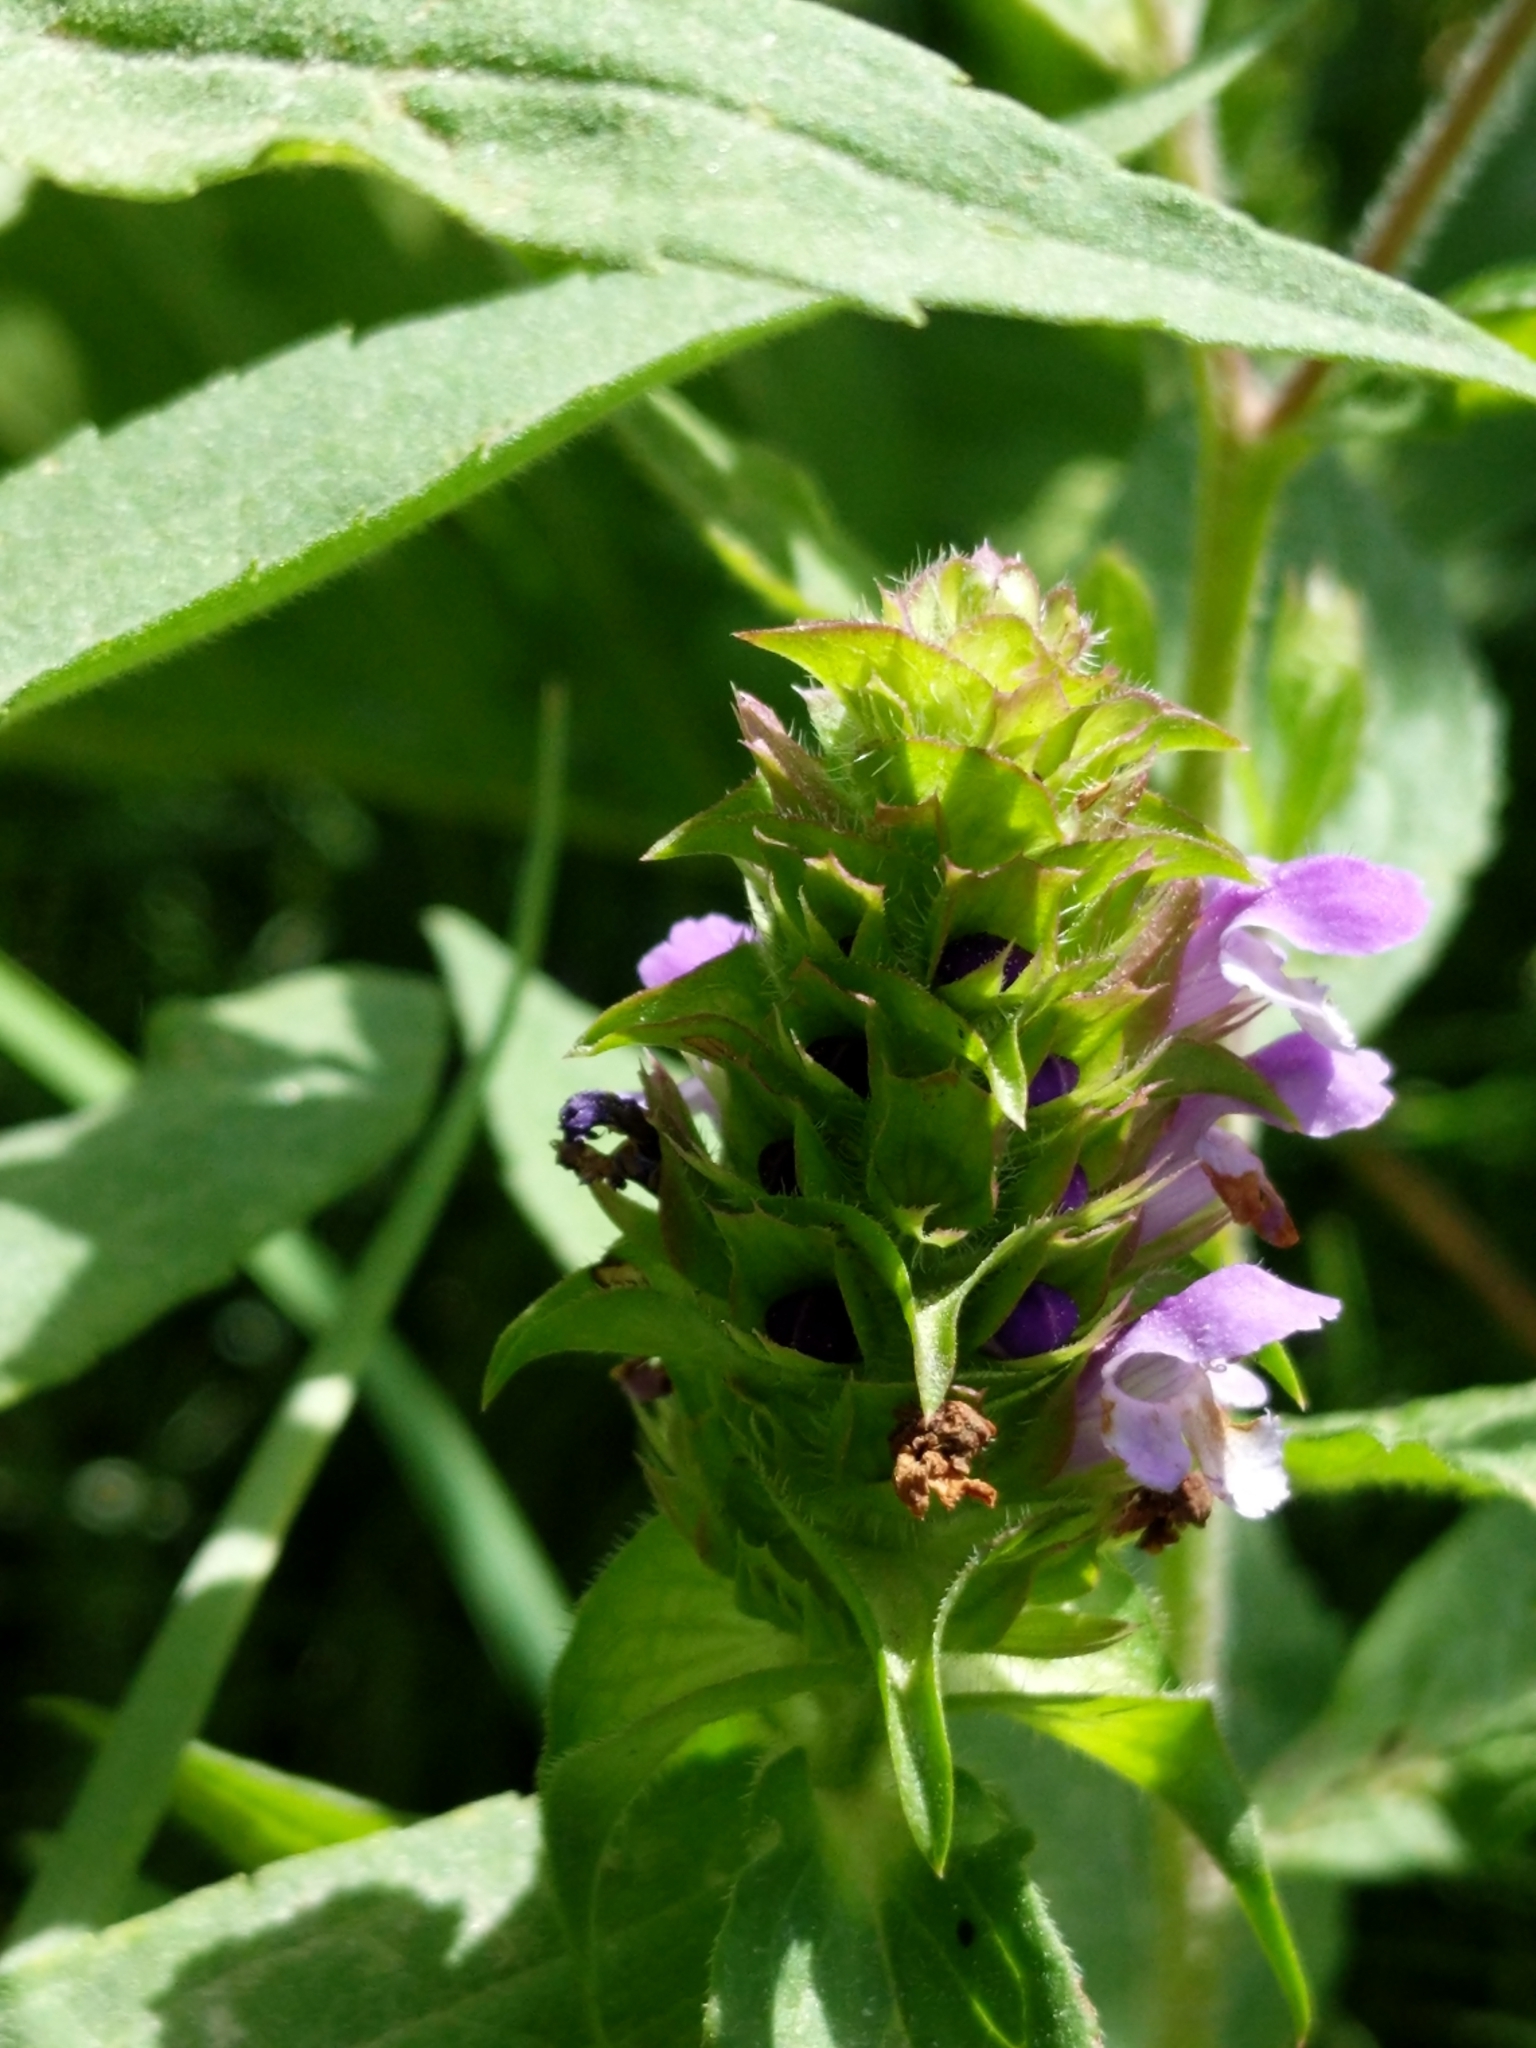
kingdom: Plantae
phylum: Tracheophyta
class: Magnoliopsida
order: Lamiales
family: Lamiaceae
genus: Prunella
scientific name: Prunella vulgaris
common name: Heal-all
